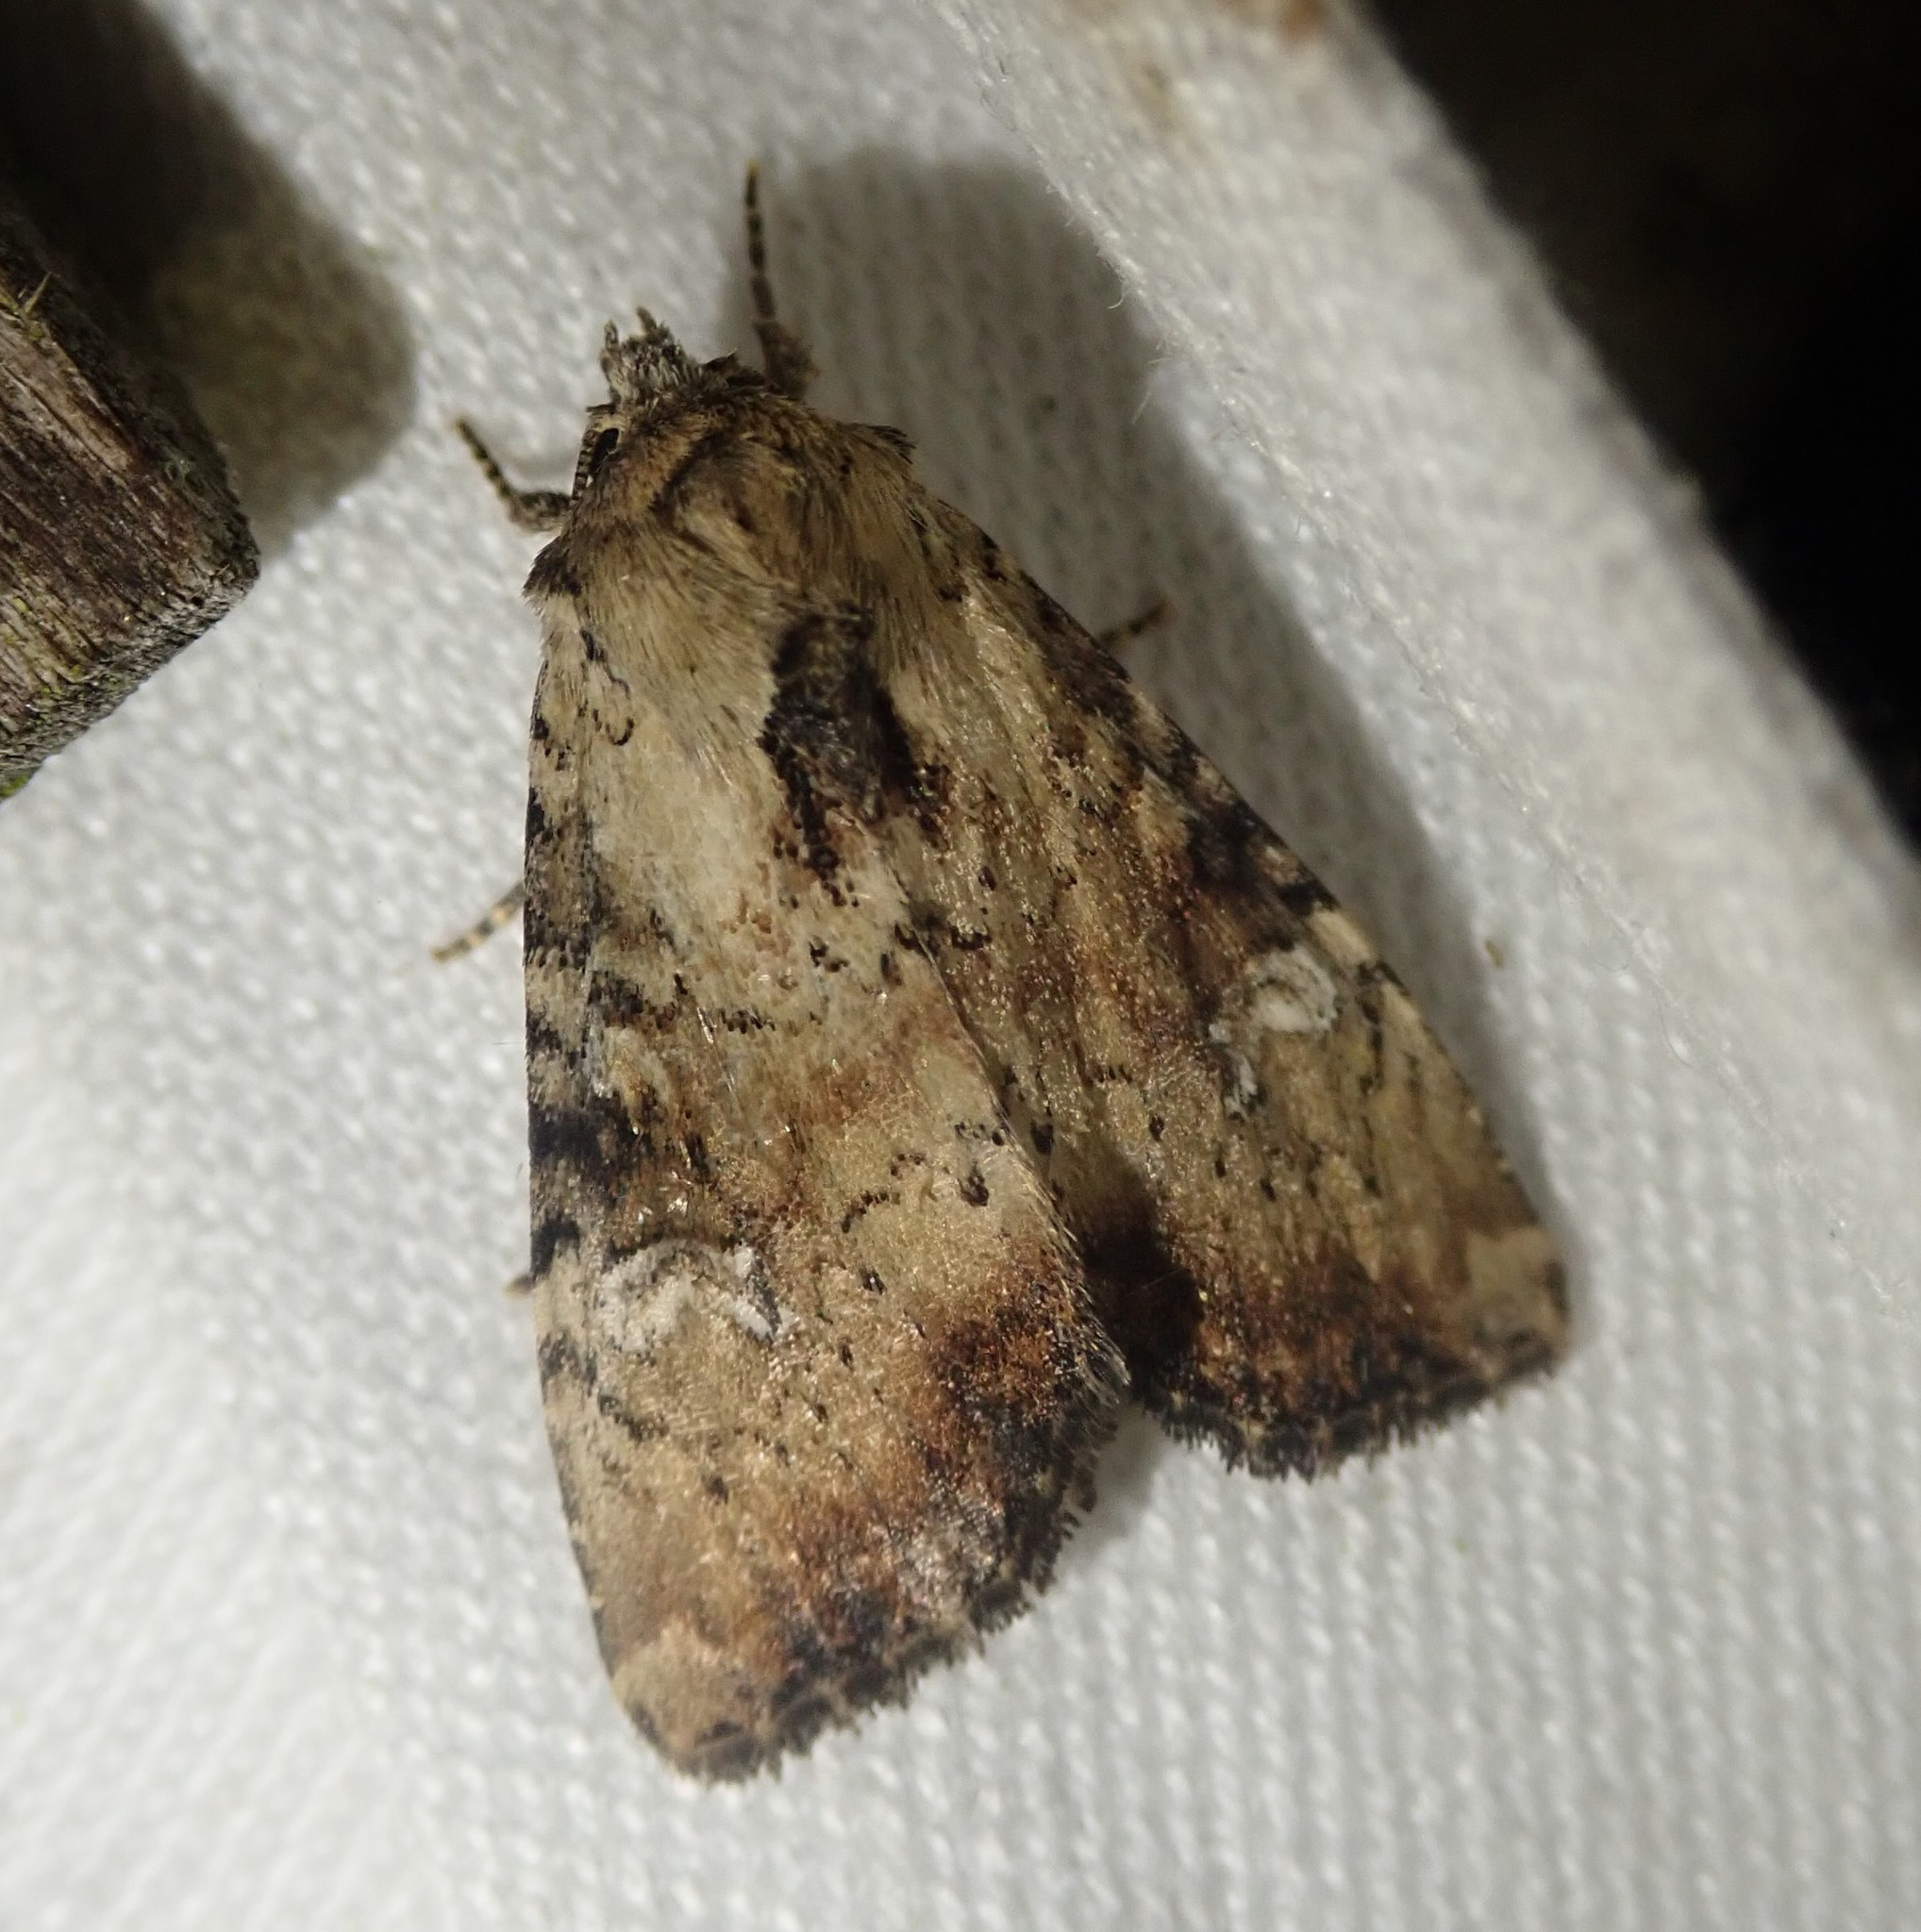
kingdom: Animalia
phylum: Arthropoda
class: Insecta
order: Lepidoptera
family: Noctuidae
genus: Loscopia
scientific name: Loscopia scolopacina
